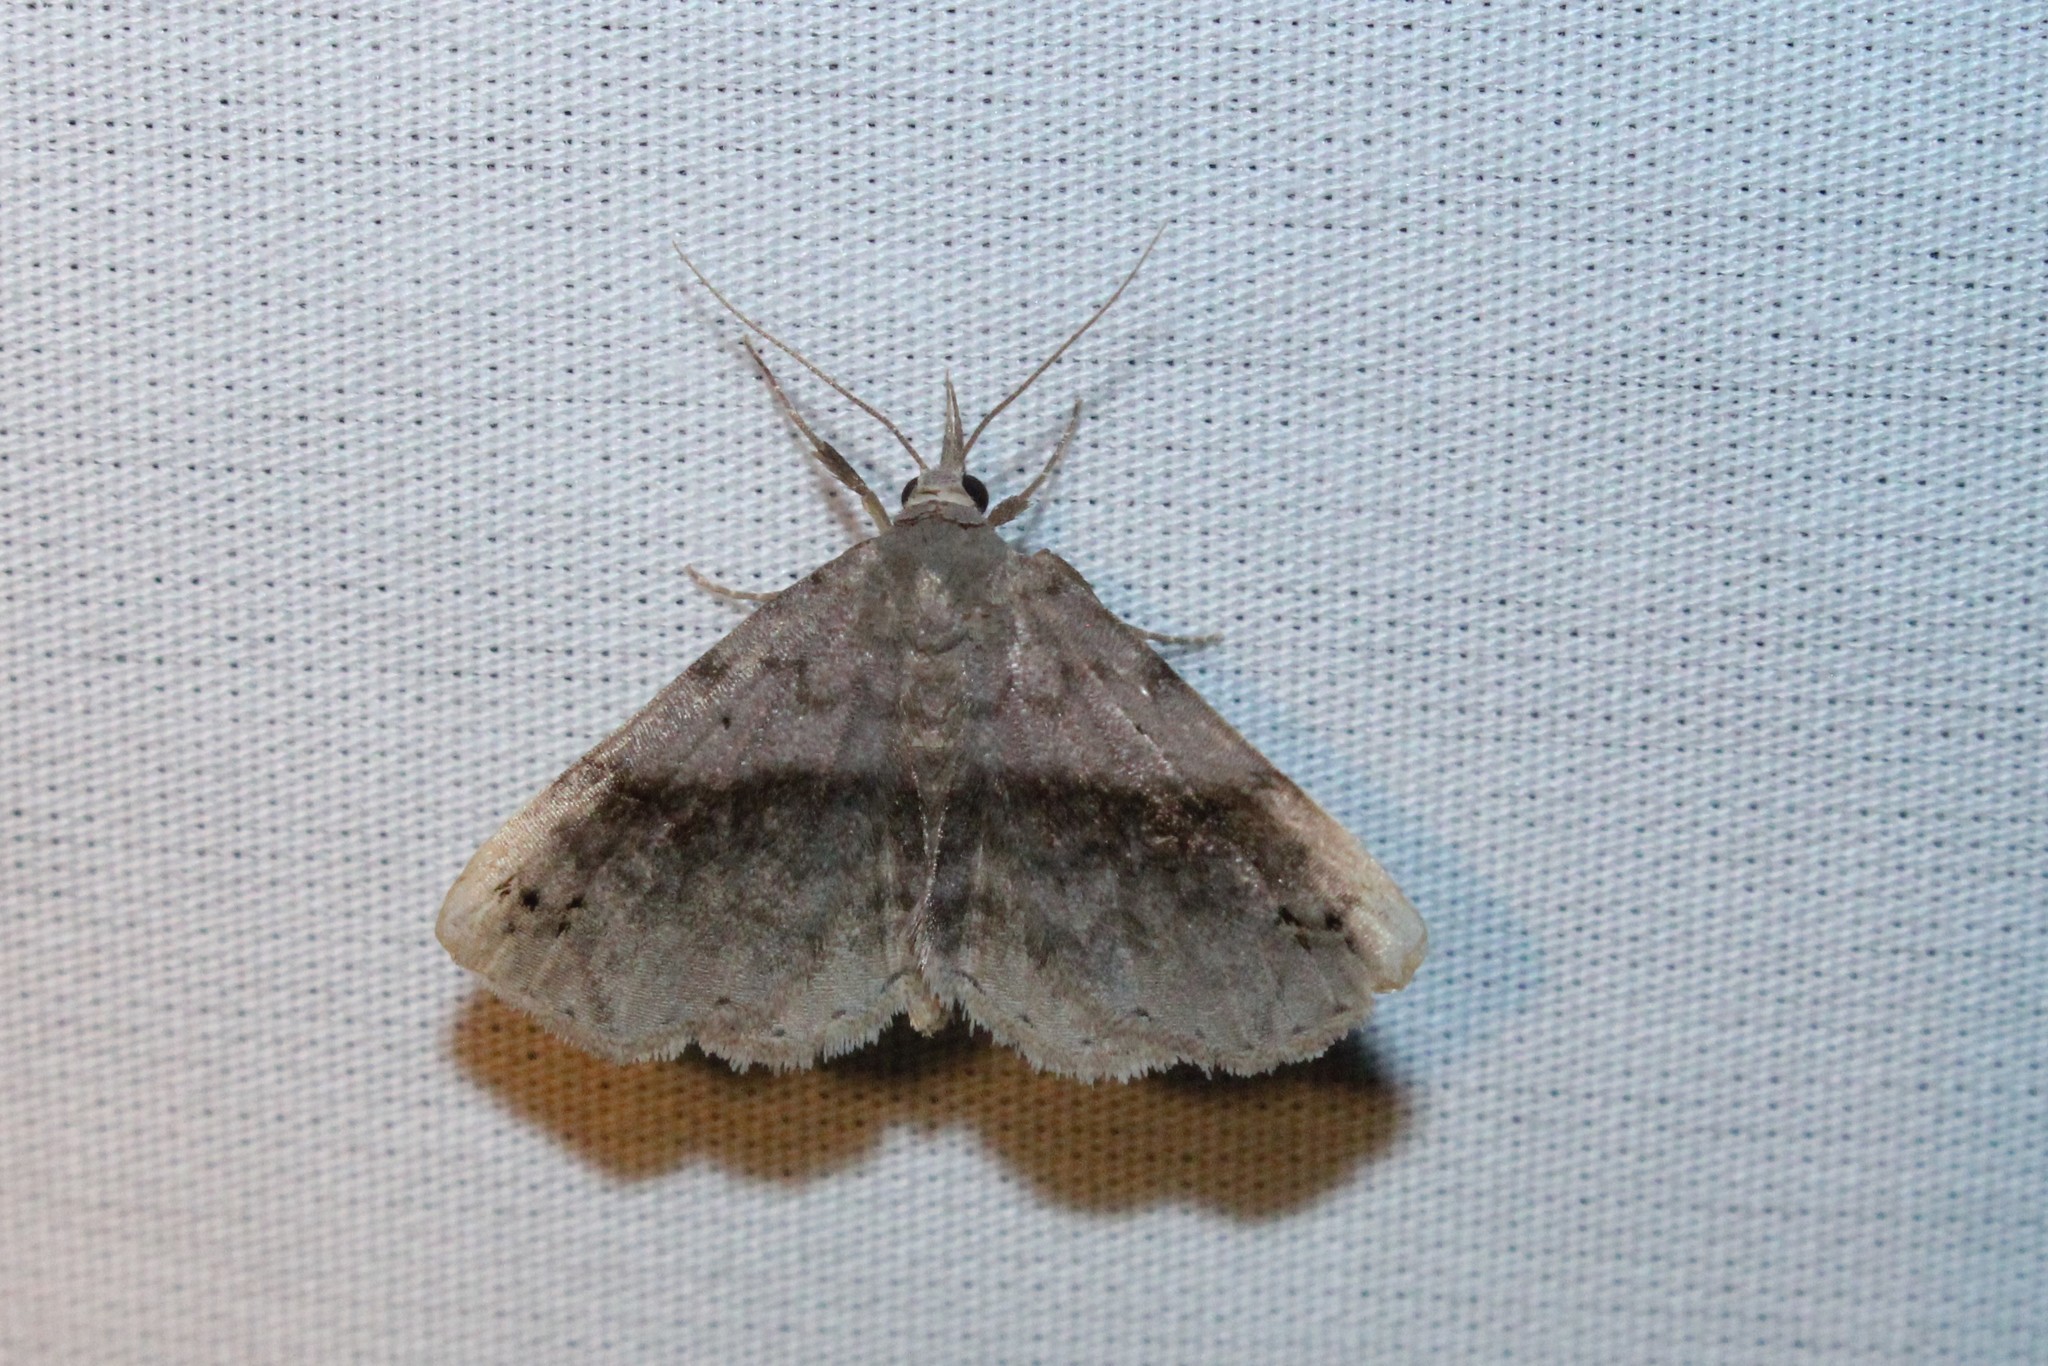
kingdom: Animalia
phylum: Arthropoda
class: Insecta
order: Lepidoptera
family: Erebidae
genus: Spargaloma
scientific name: Spargaloma sexpunctata
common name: Six-spotted gray
